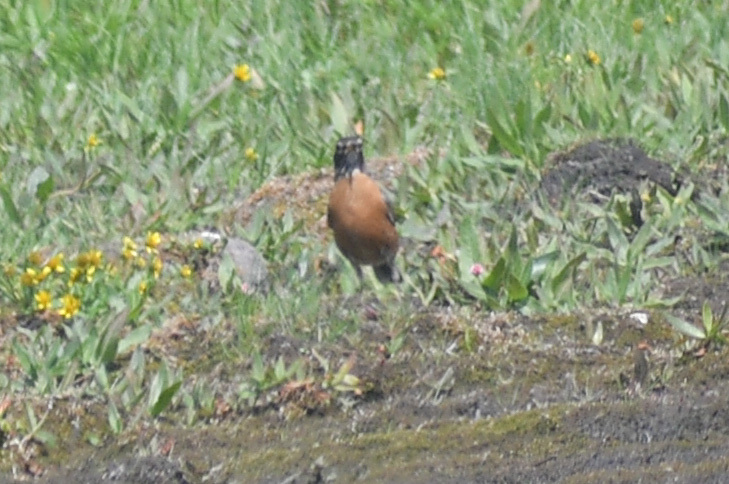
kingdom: Animalia
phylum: Chordata
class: Aves
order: Passeriformes
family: Turdidae
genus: Turdus
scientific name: Turdus migratorius
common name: American robin
